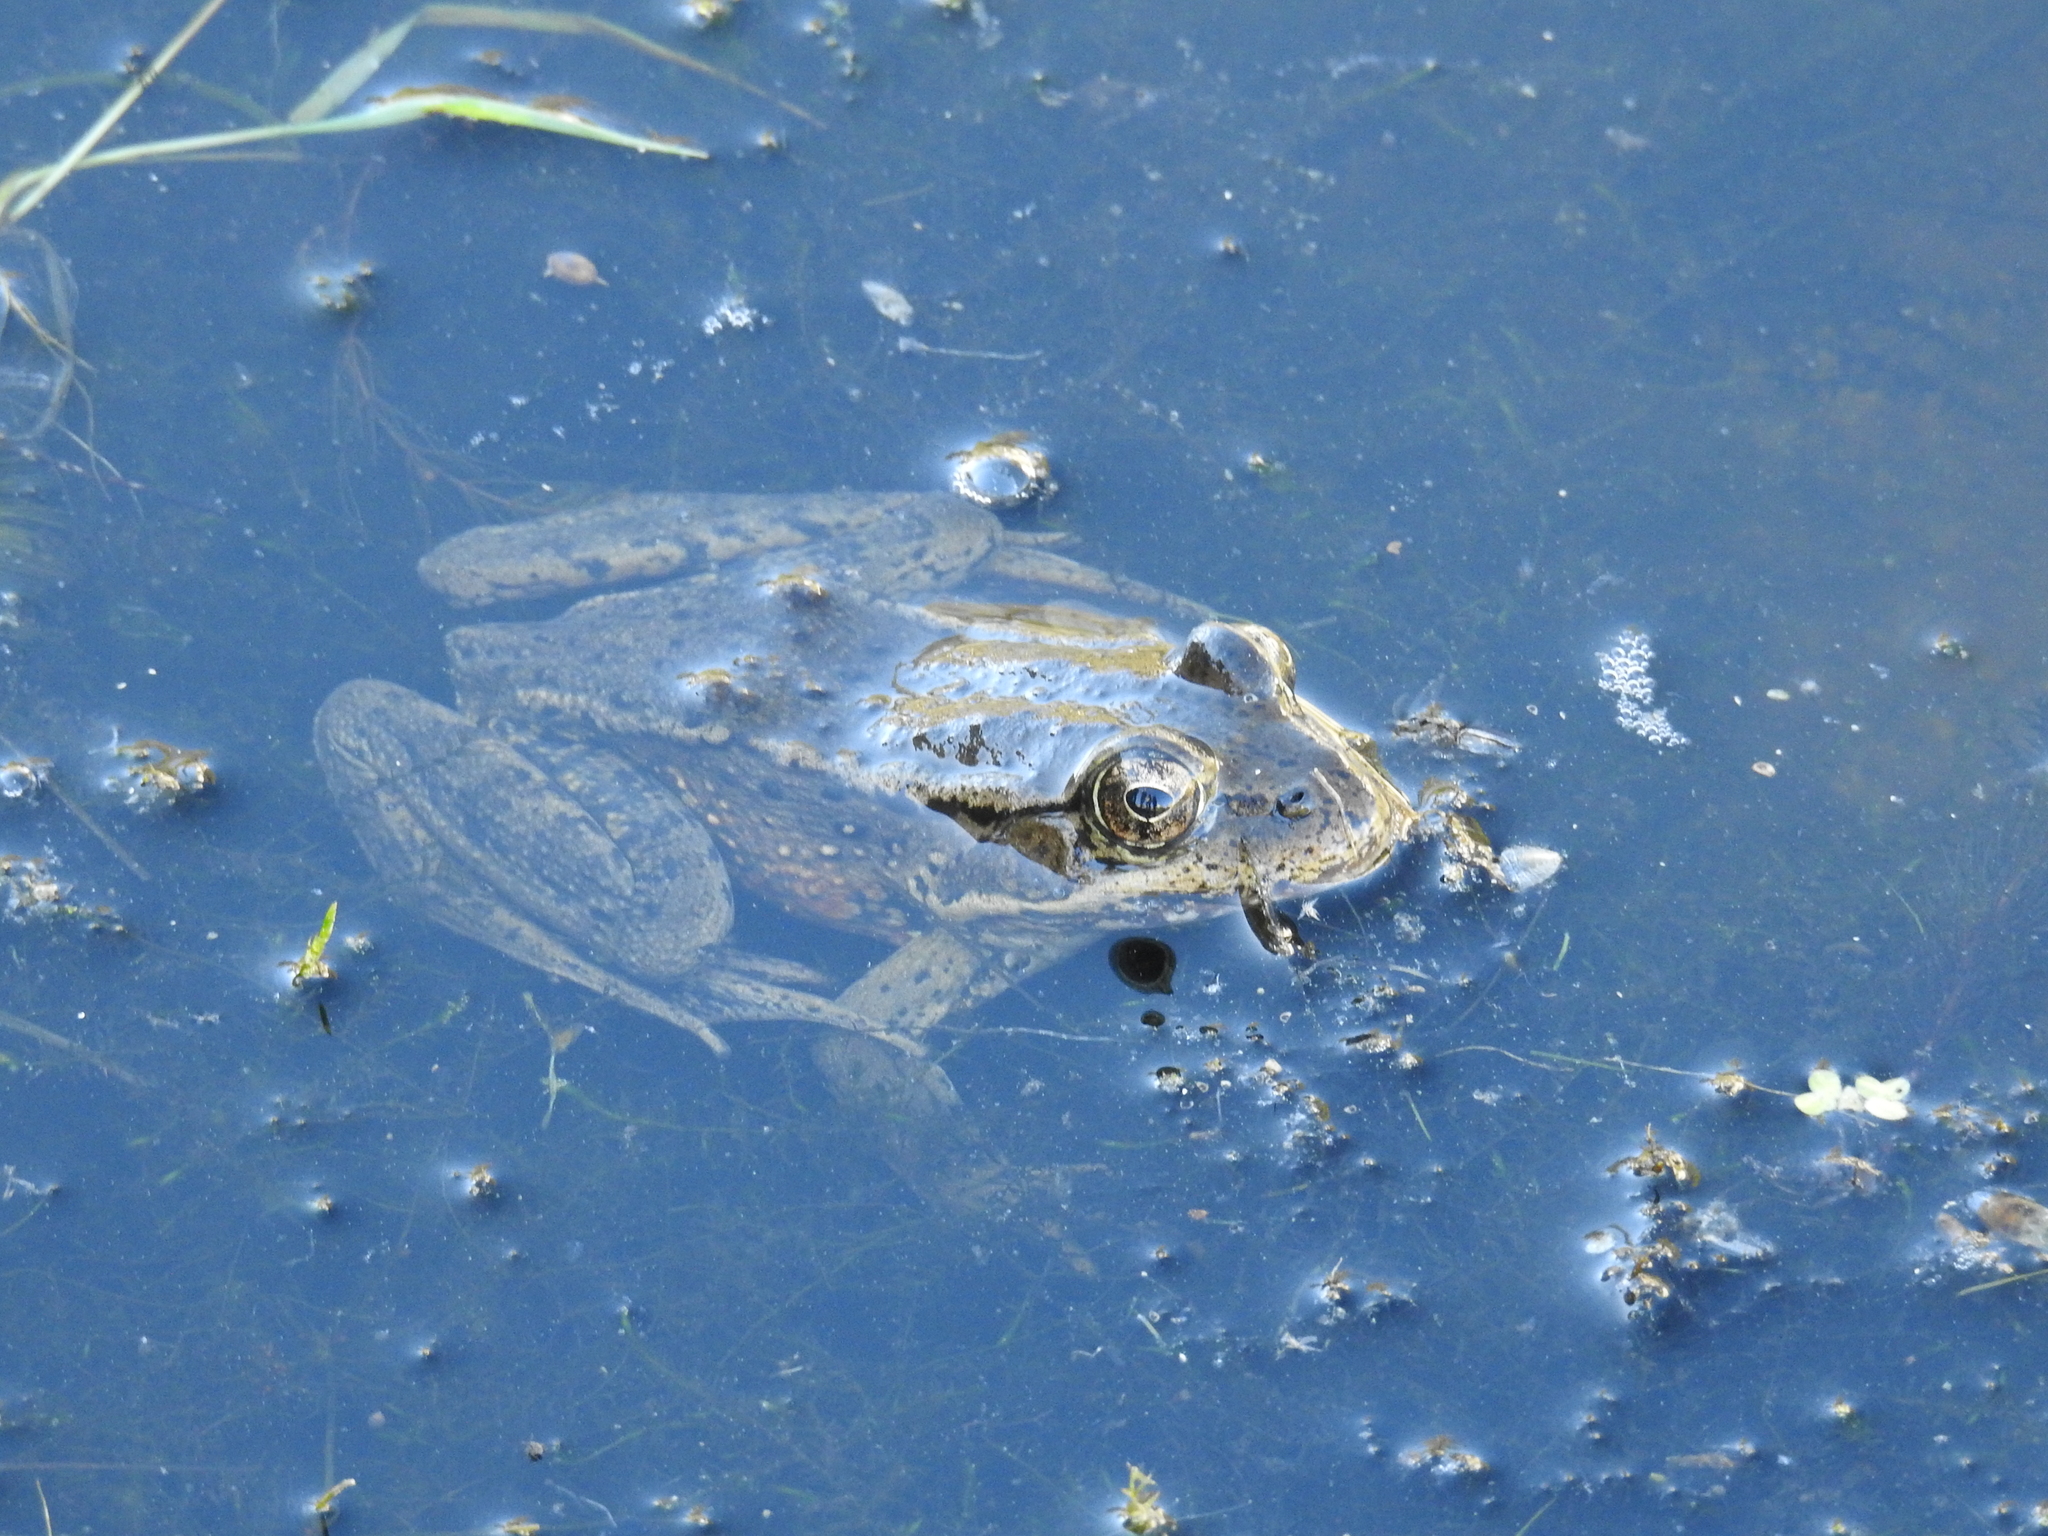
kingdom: Animalia
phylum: Chordata
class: Amphibia
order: Anura
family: Ranidae
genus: Rana
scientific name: Rana draytonii
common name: California red-legged frog
